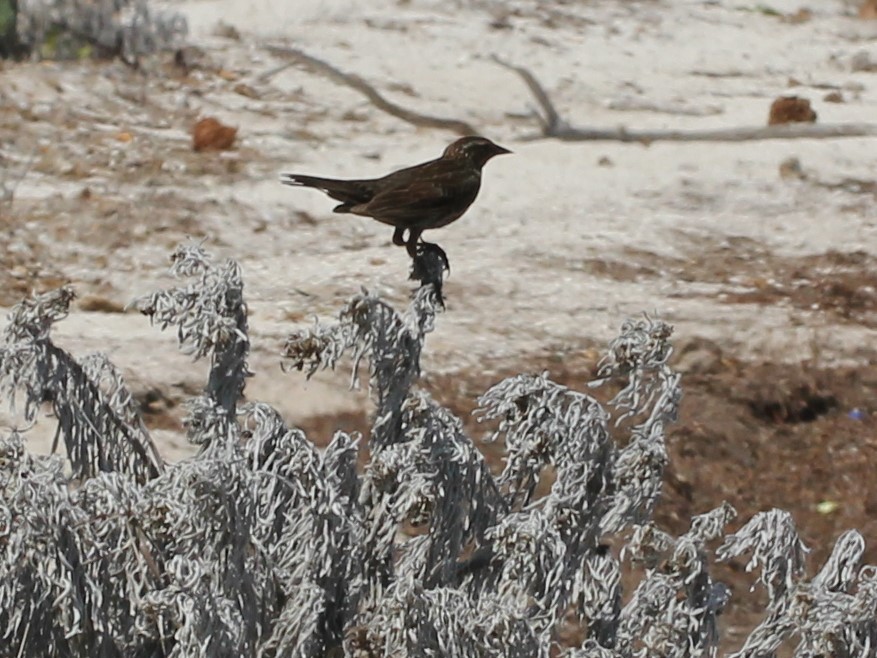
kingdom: Animalia
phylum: Chordata
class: Aves
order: Passeriformes
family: Icteridae
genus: Agelaius
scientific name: Agelaius phoeniceus
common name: Red-winged blackbird
